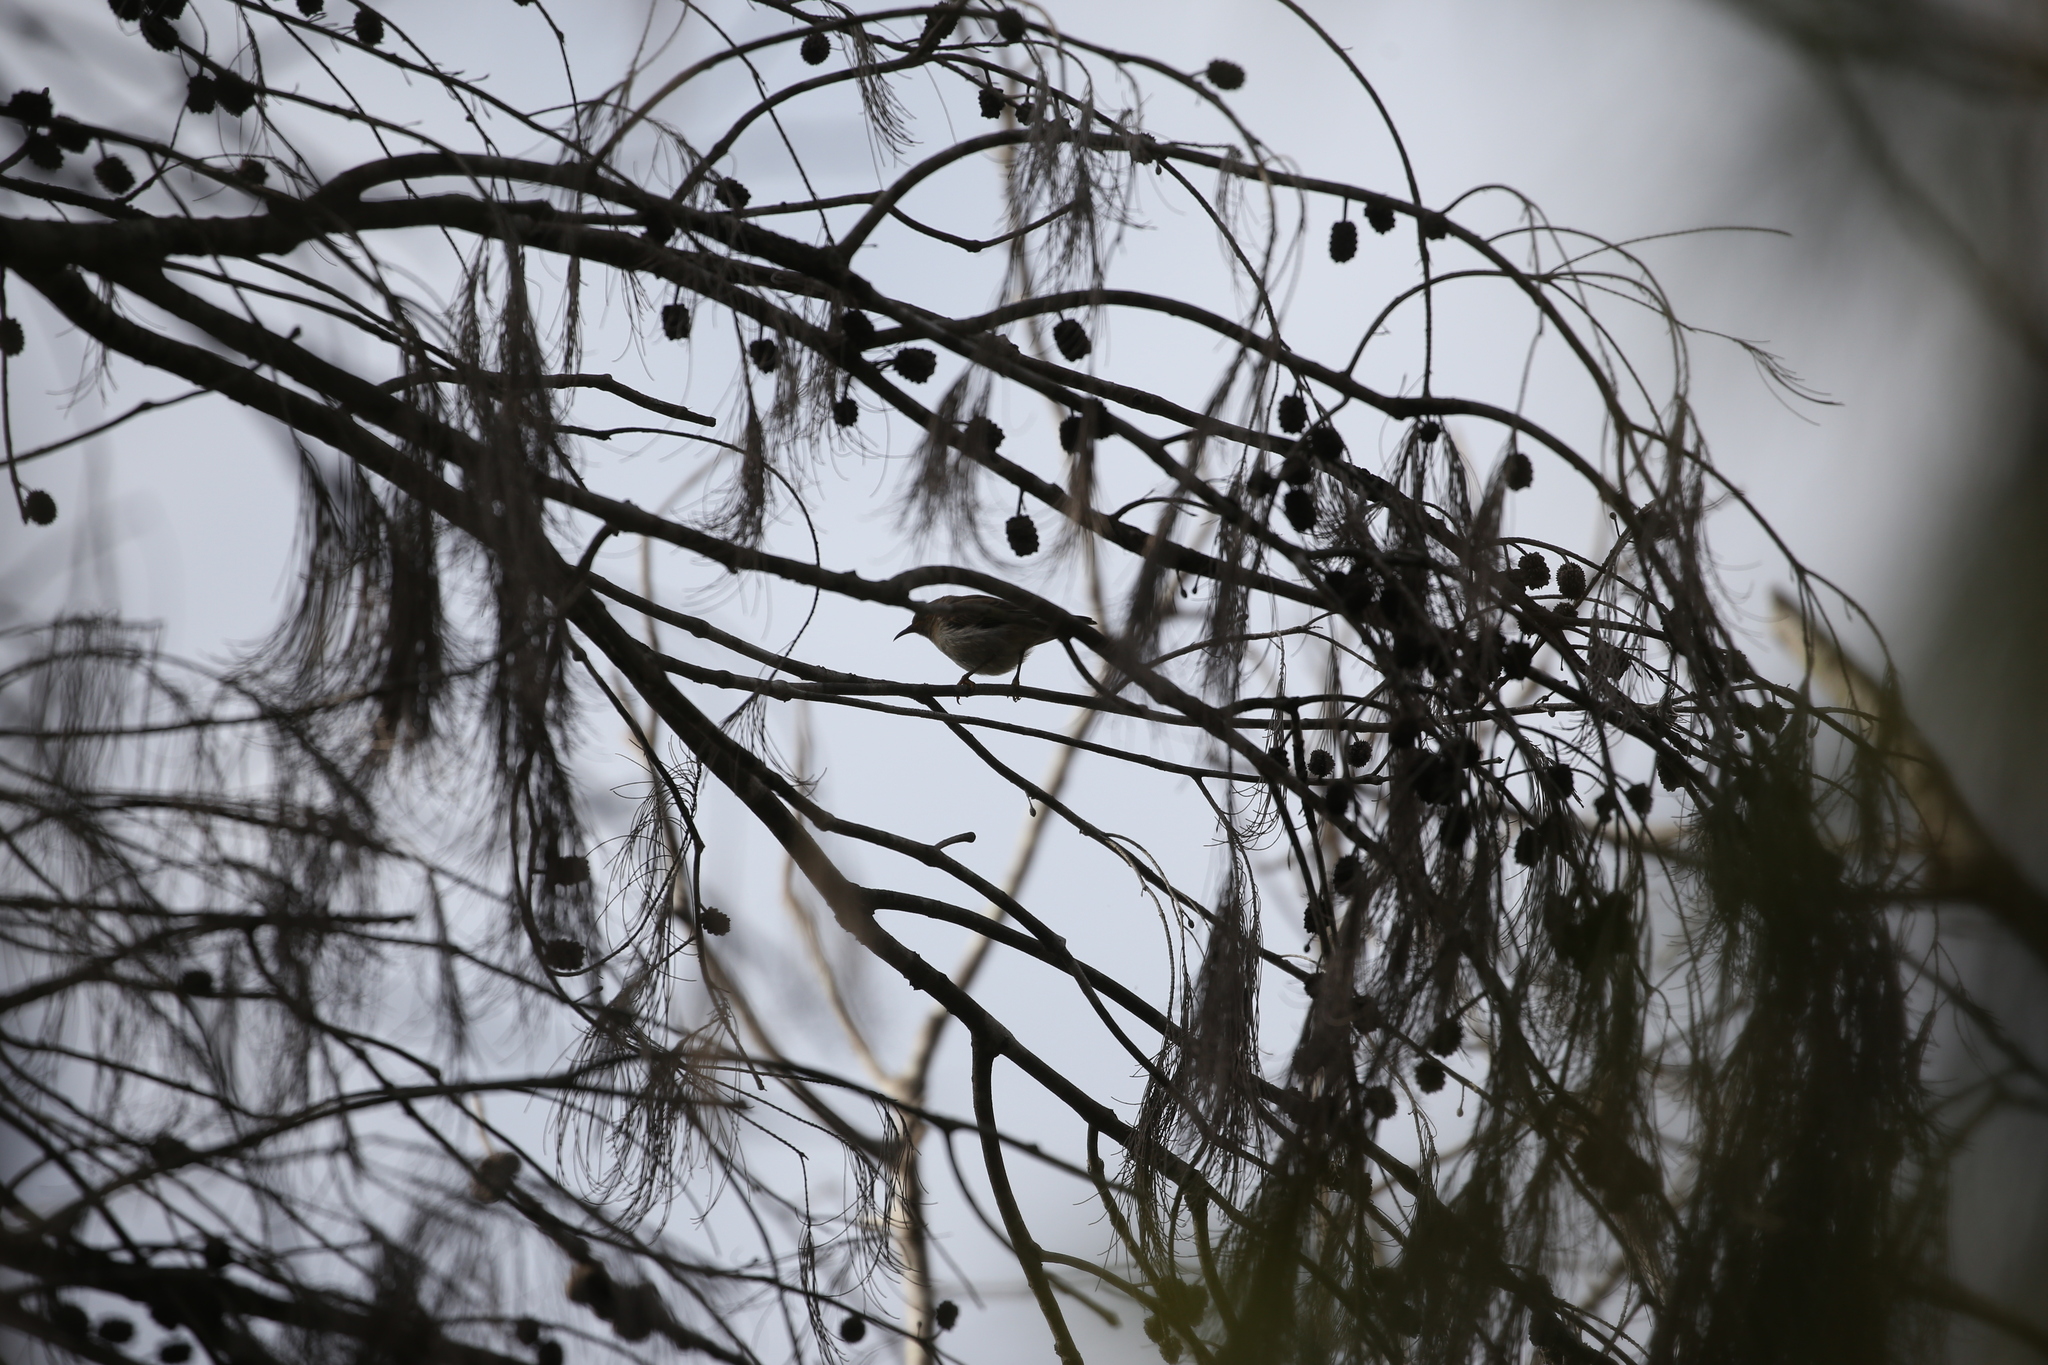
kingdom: Animalia
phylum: Chordata
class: Aves
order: Passeriformes
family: Meliphagidae
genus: Myzomela
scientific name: Myzomela sanguinolenta
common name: Scarlet myzomela
